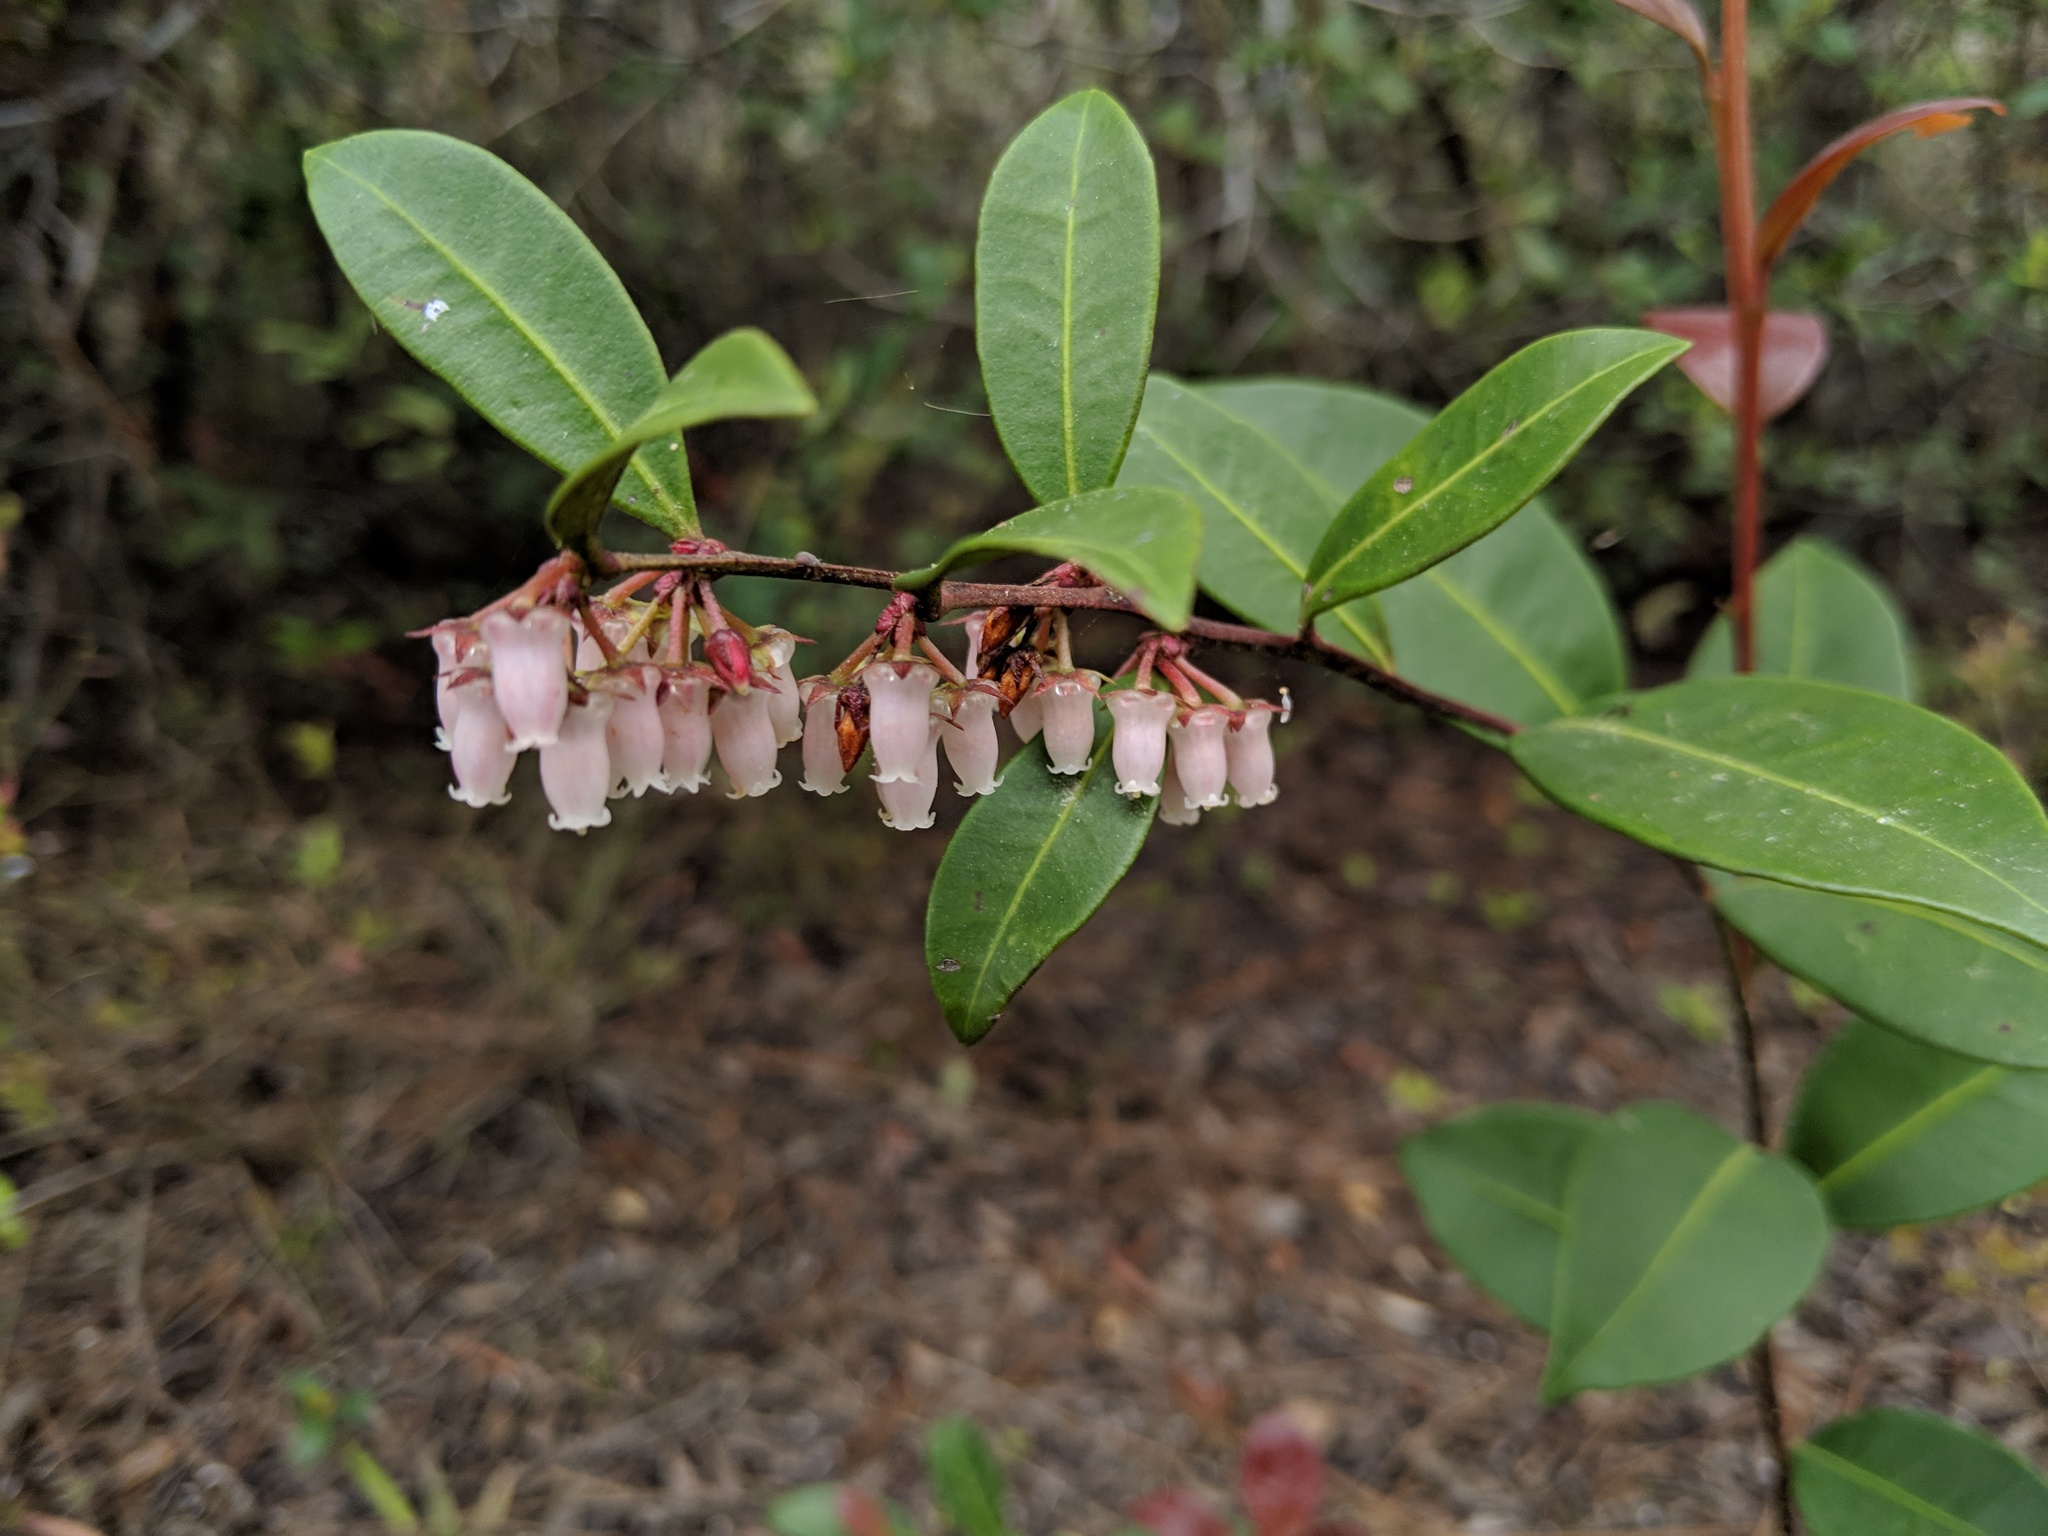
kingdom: Plantae
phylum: Tracheophyta
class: Magnoliopsida
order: Ericales
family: Ericaceae
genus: Lyonia
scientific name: Lyonia lucida
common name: Fetterbush
